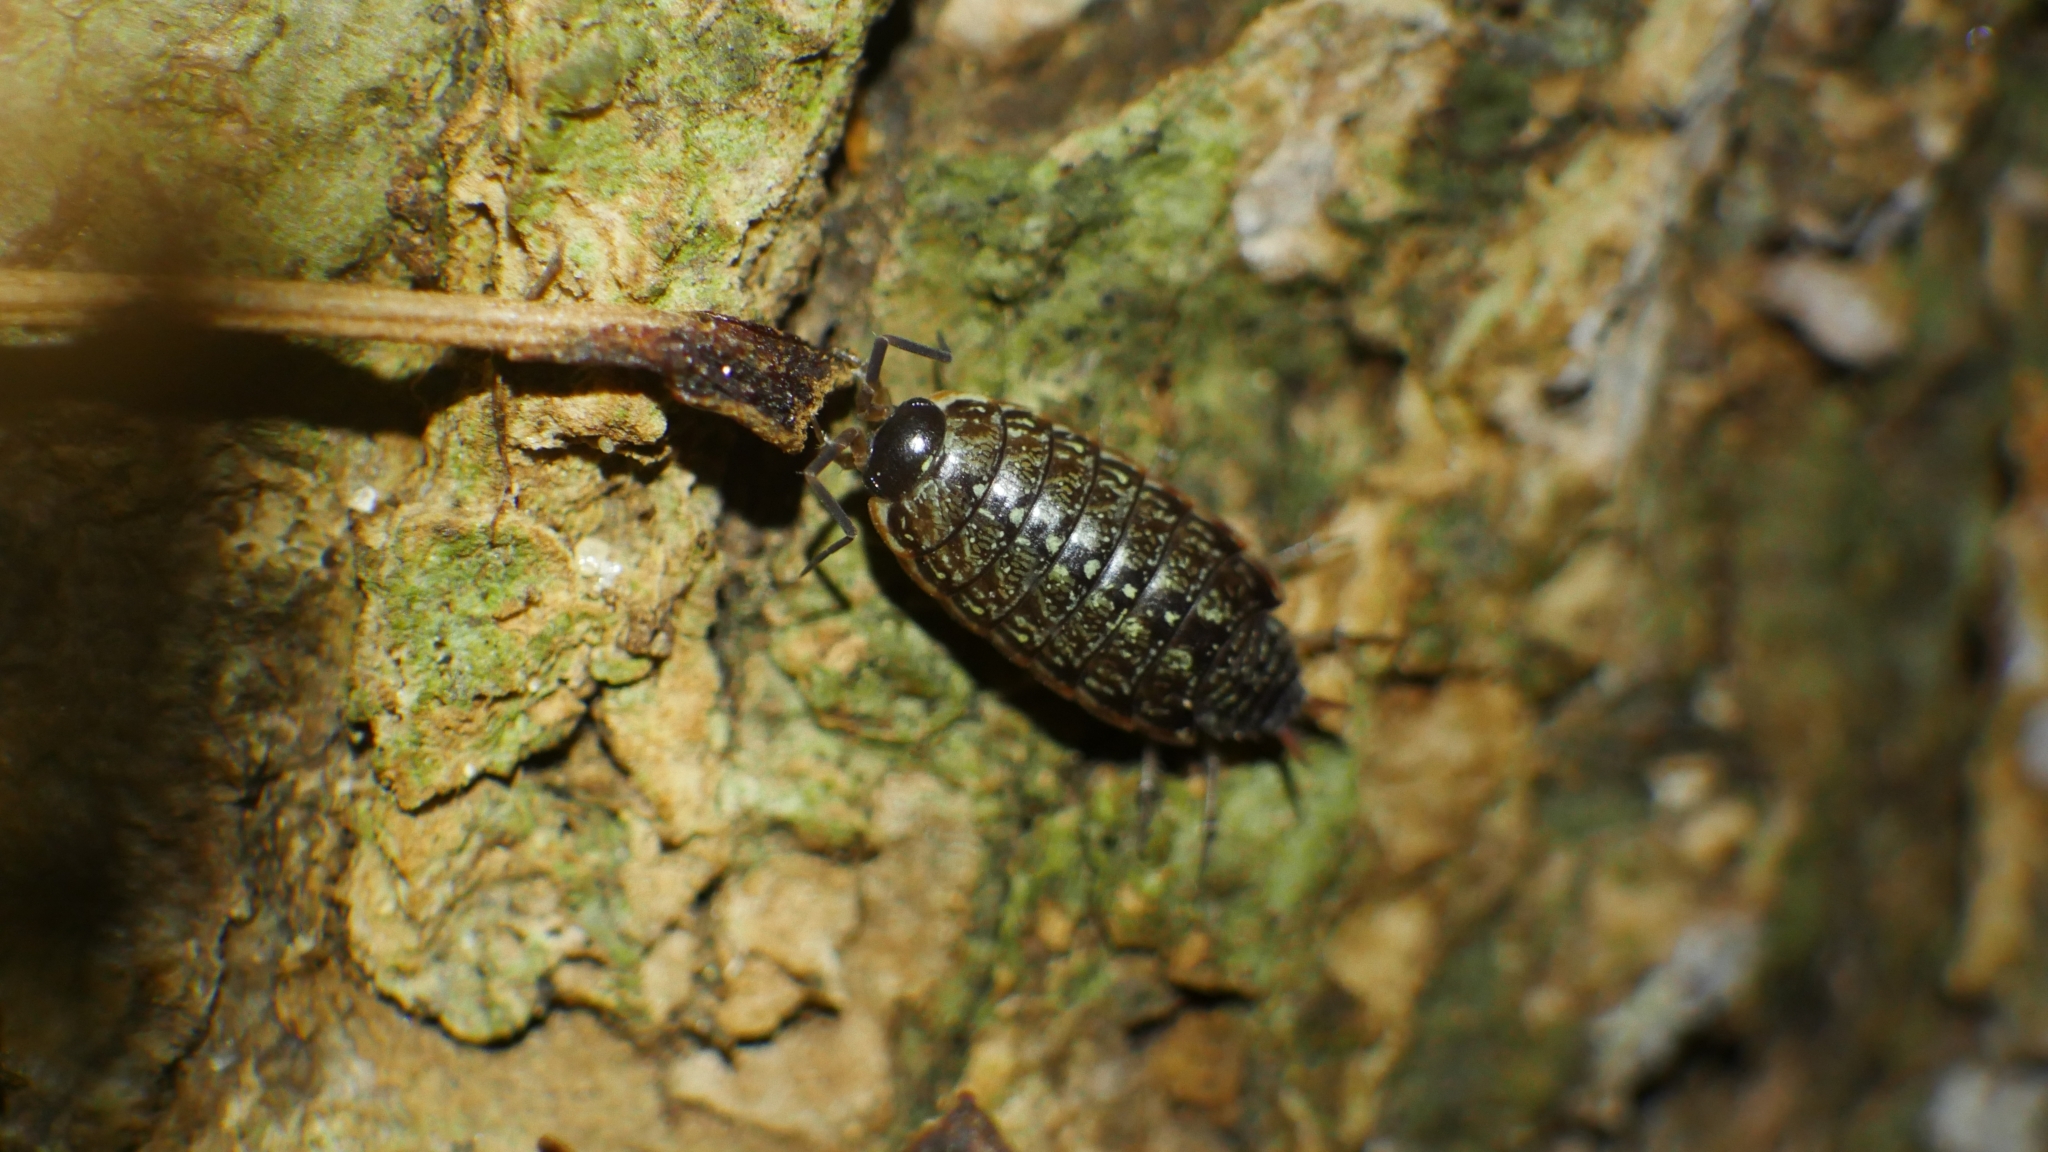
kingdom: Animalia
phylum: Arthropoda
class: Malacostraca
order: Isopoda
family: Philosciidae
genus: Philoscia
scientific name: Philoscia muscorum
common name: Common striped woodlouse
